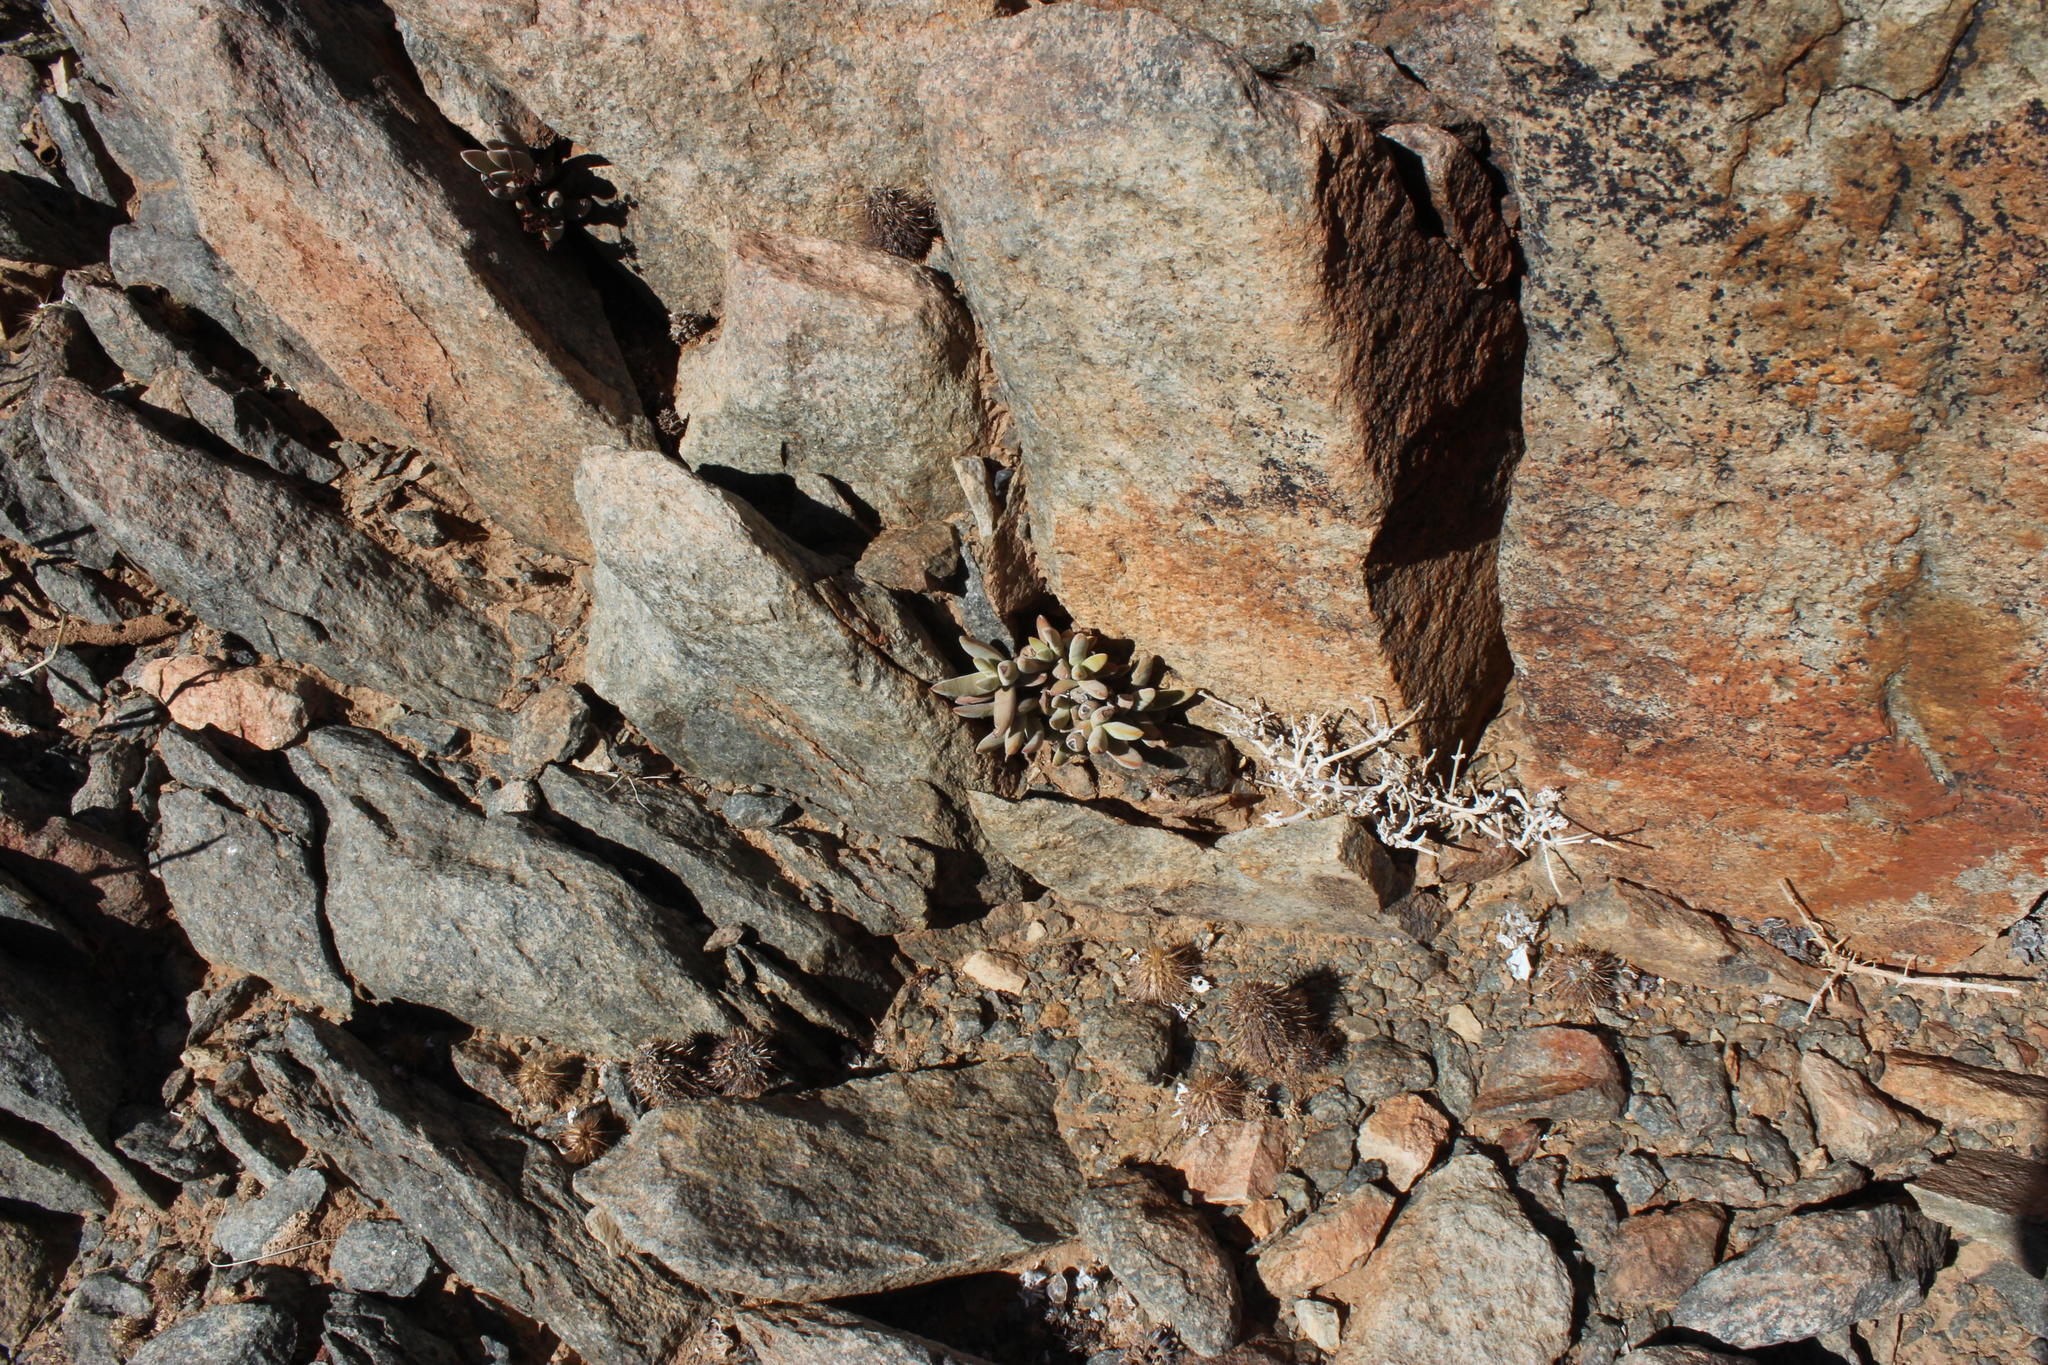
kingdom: Plantae
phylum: Tracheophyta
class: Magnoliopsida
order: Saxifragales
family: Crassulaceae
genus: Crassula
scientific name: Crassula garibina
